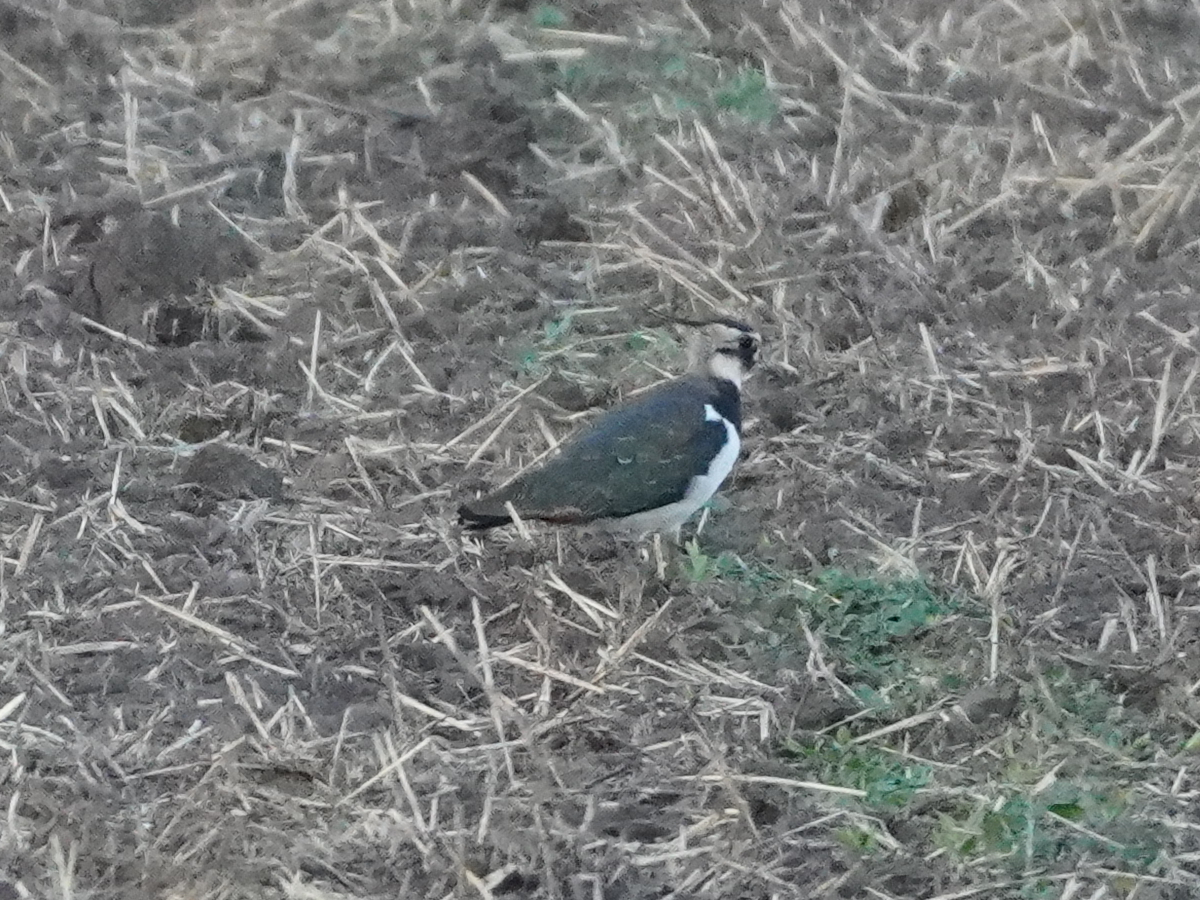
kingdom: Animalia
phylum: Chordata
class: Aves
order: Charadriiformes
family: Charadriidae
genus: Vanellus
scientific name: Vanellus vanellus
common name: Northern lapwing
